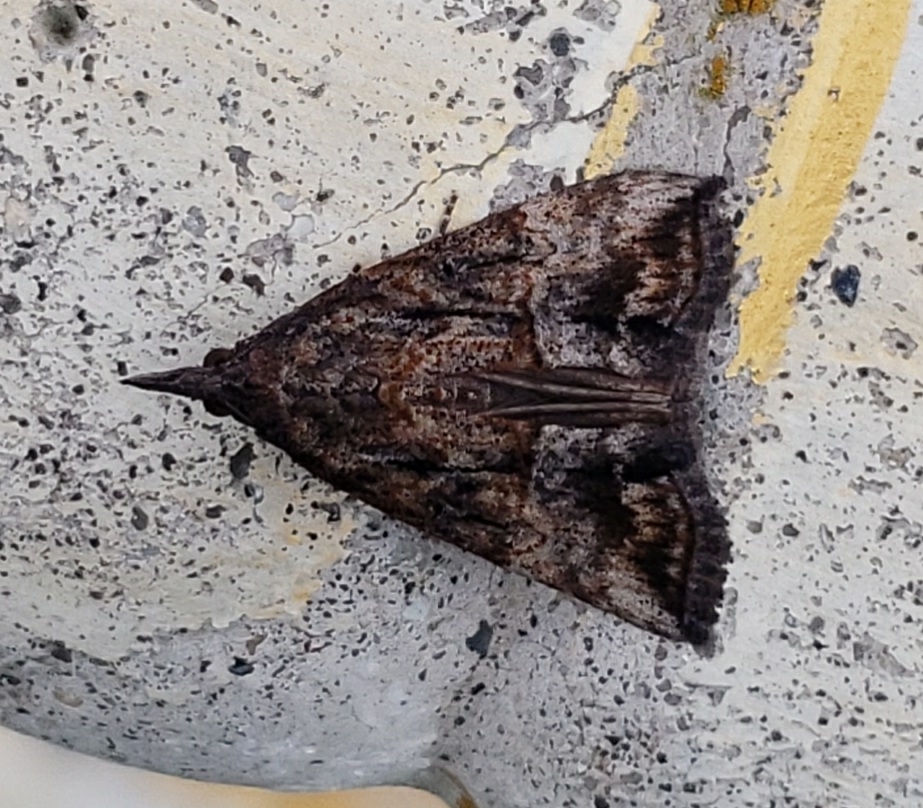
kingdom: Animalia
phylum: Arthropoda
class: Insecta
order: Lepidoptera
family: Erebidae
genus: Hypena
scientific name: Hypena scabra
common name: Green cloverworm
